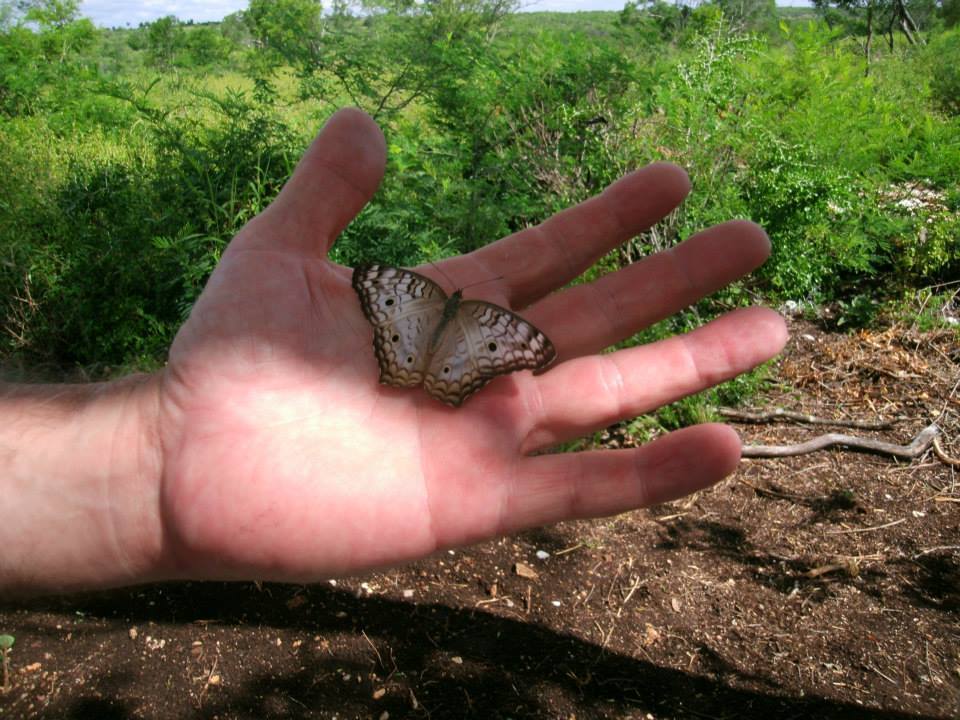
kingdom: Animalia
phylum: Arthropoda
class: Insecta
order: Lepidoptera
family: Nymphalidae
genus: Anartia
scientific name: Anartia jatrophae
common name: White peacock
